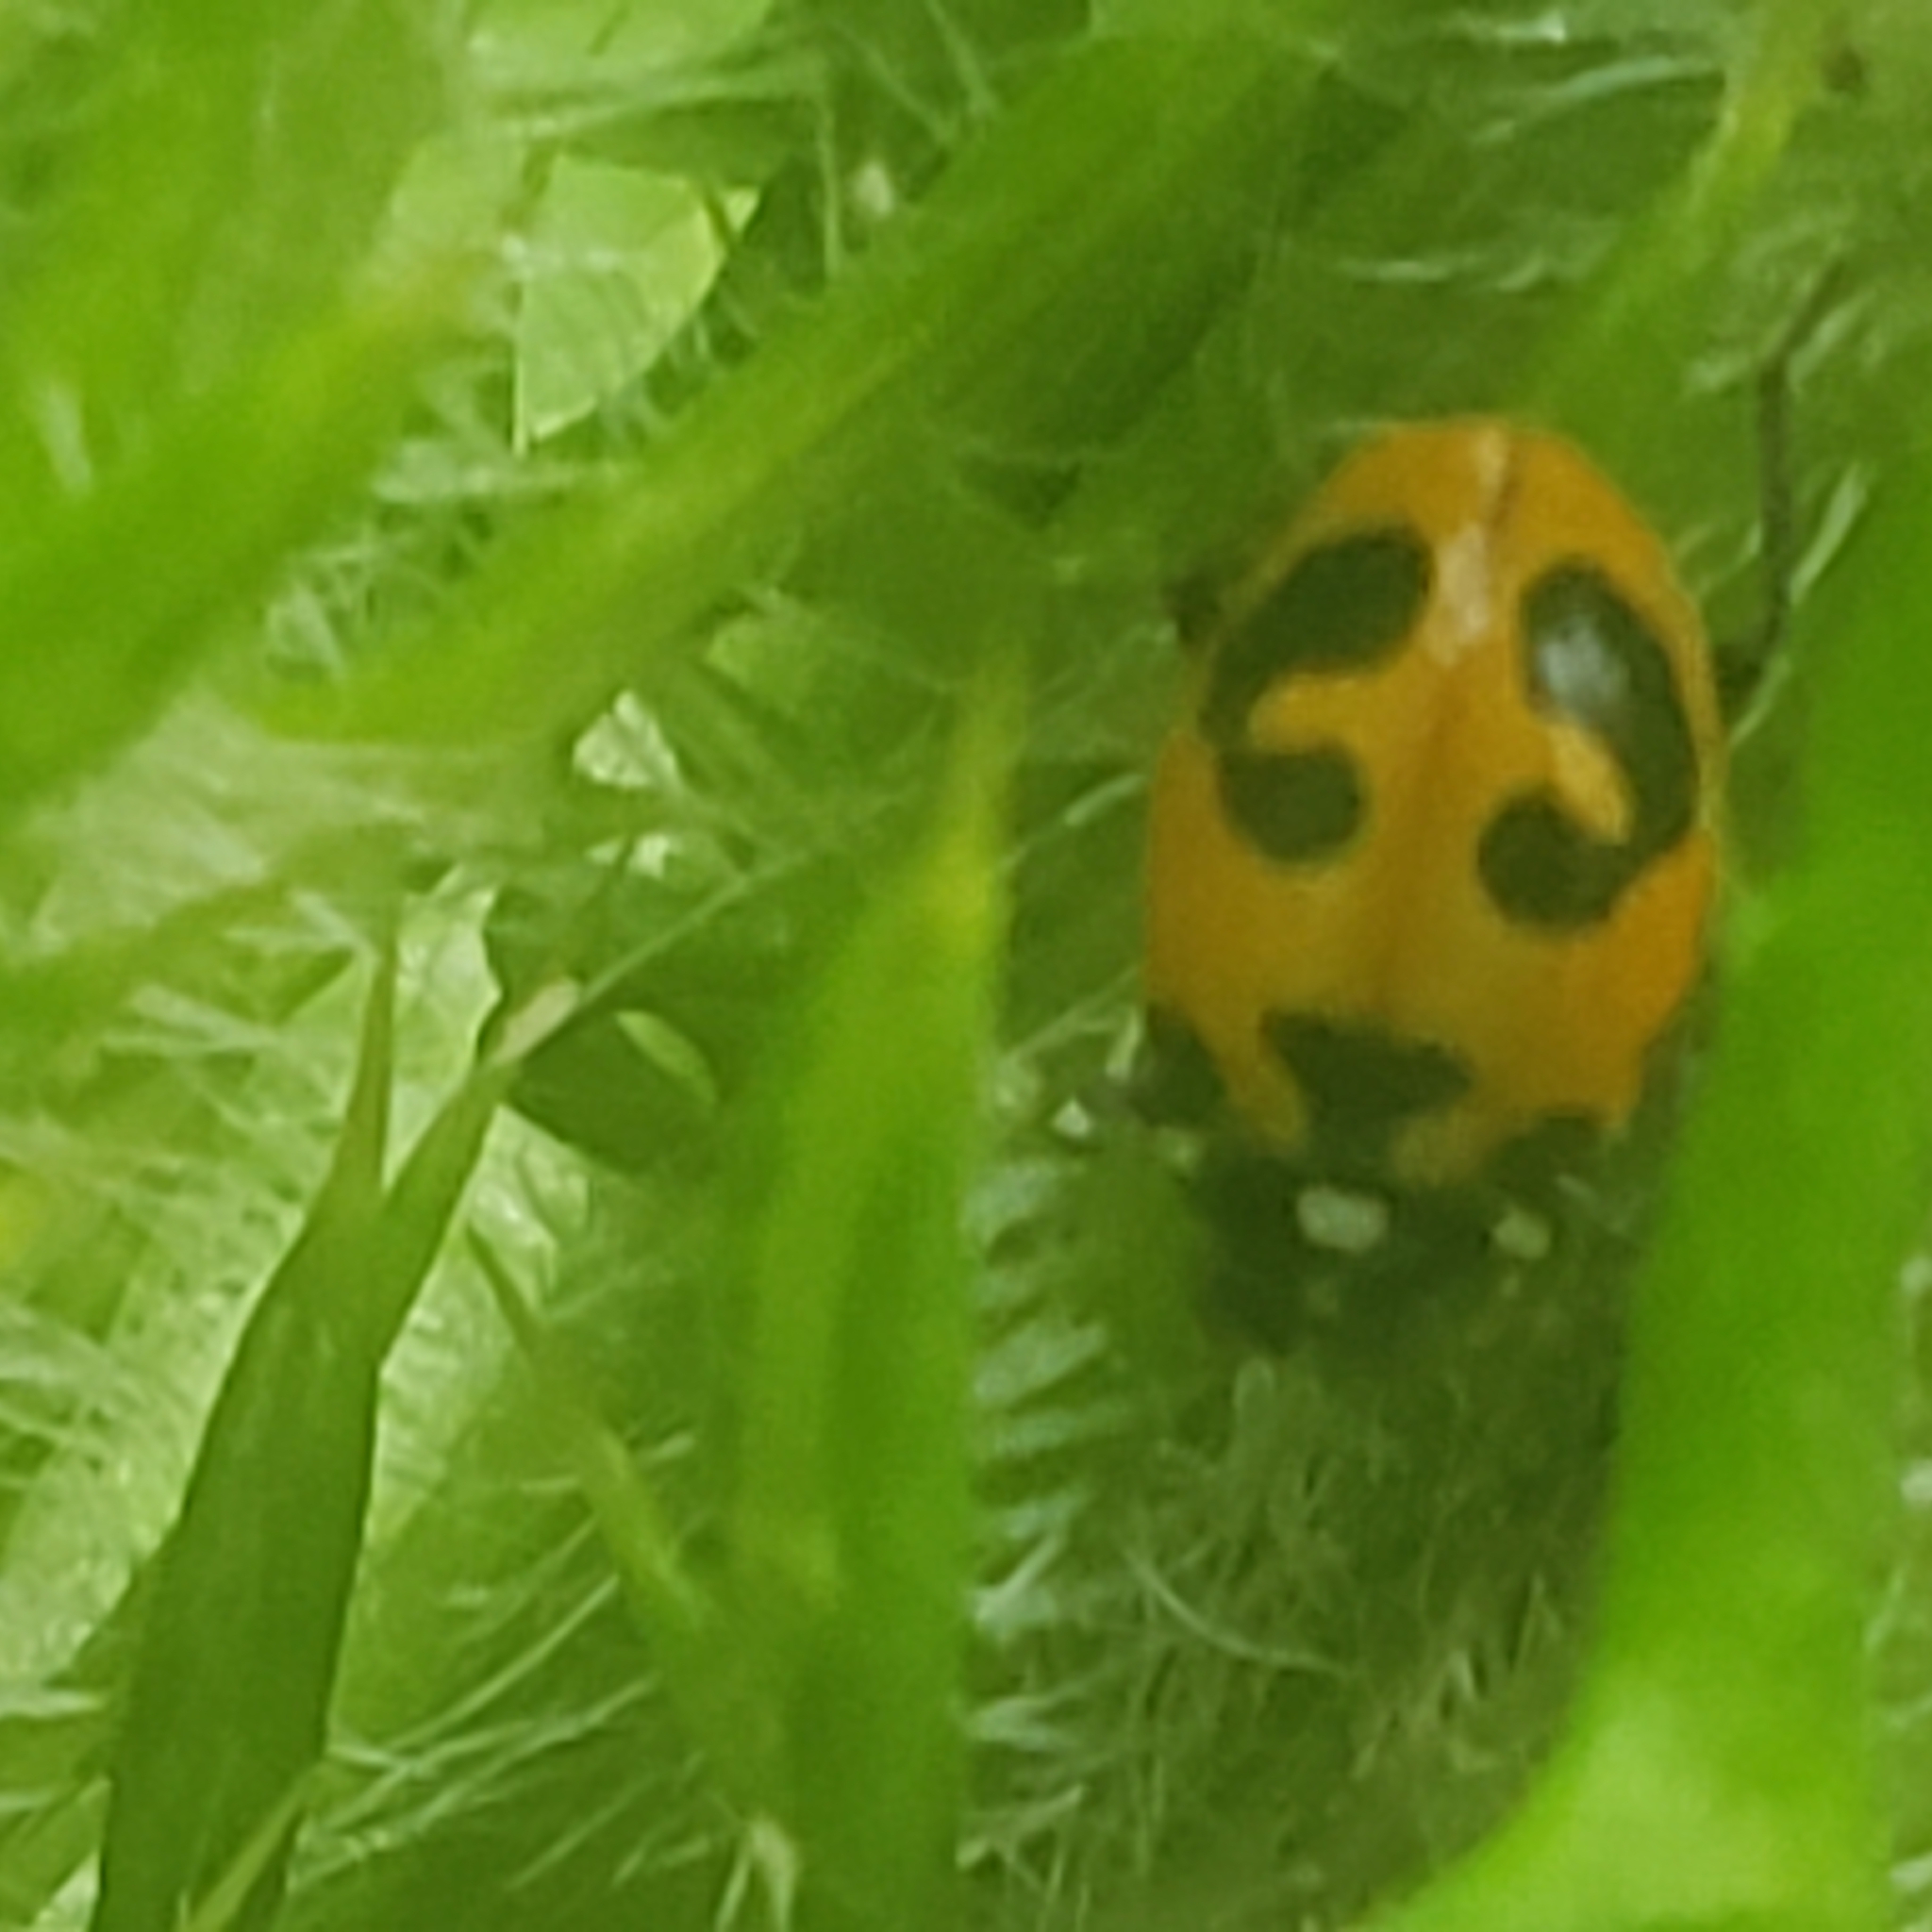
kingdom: Animalia
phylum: Arthropoda
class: Insecta
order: Coleoptera
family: Coccinellidae
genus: Hippodamia
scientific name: Hippodamia parenthesis
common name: Parenthesis lady beetle
